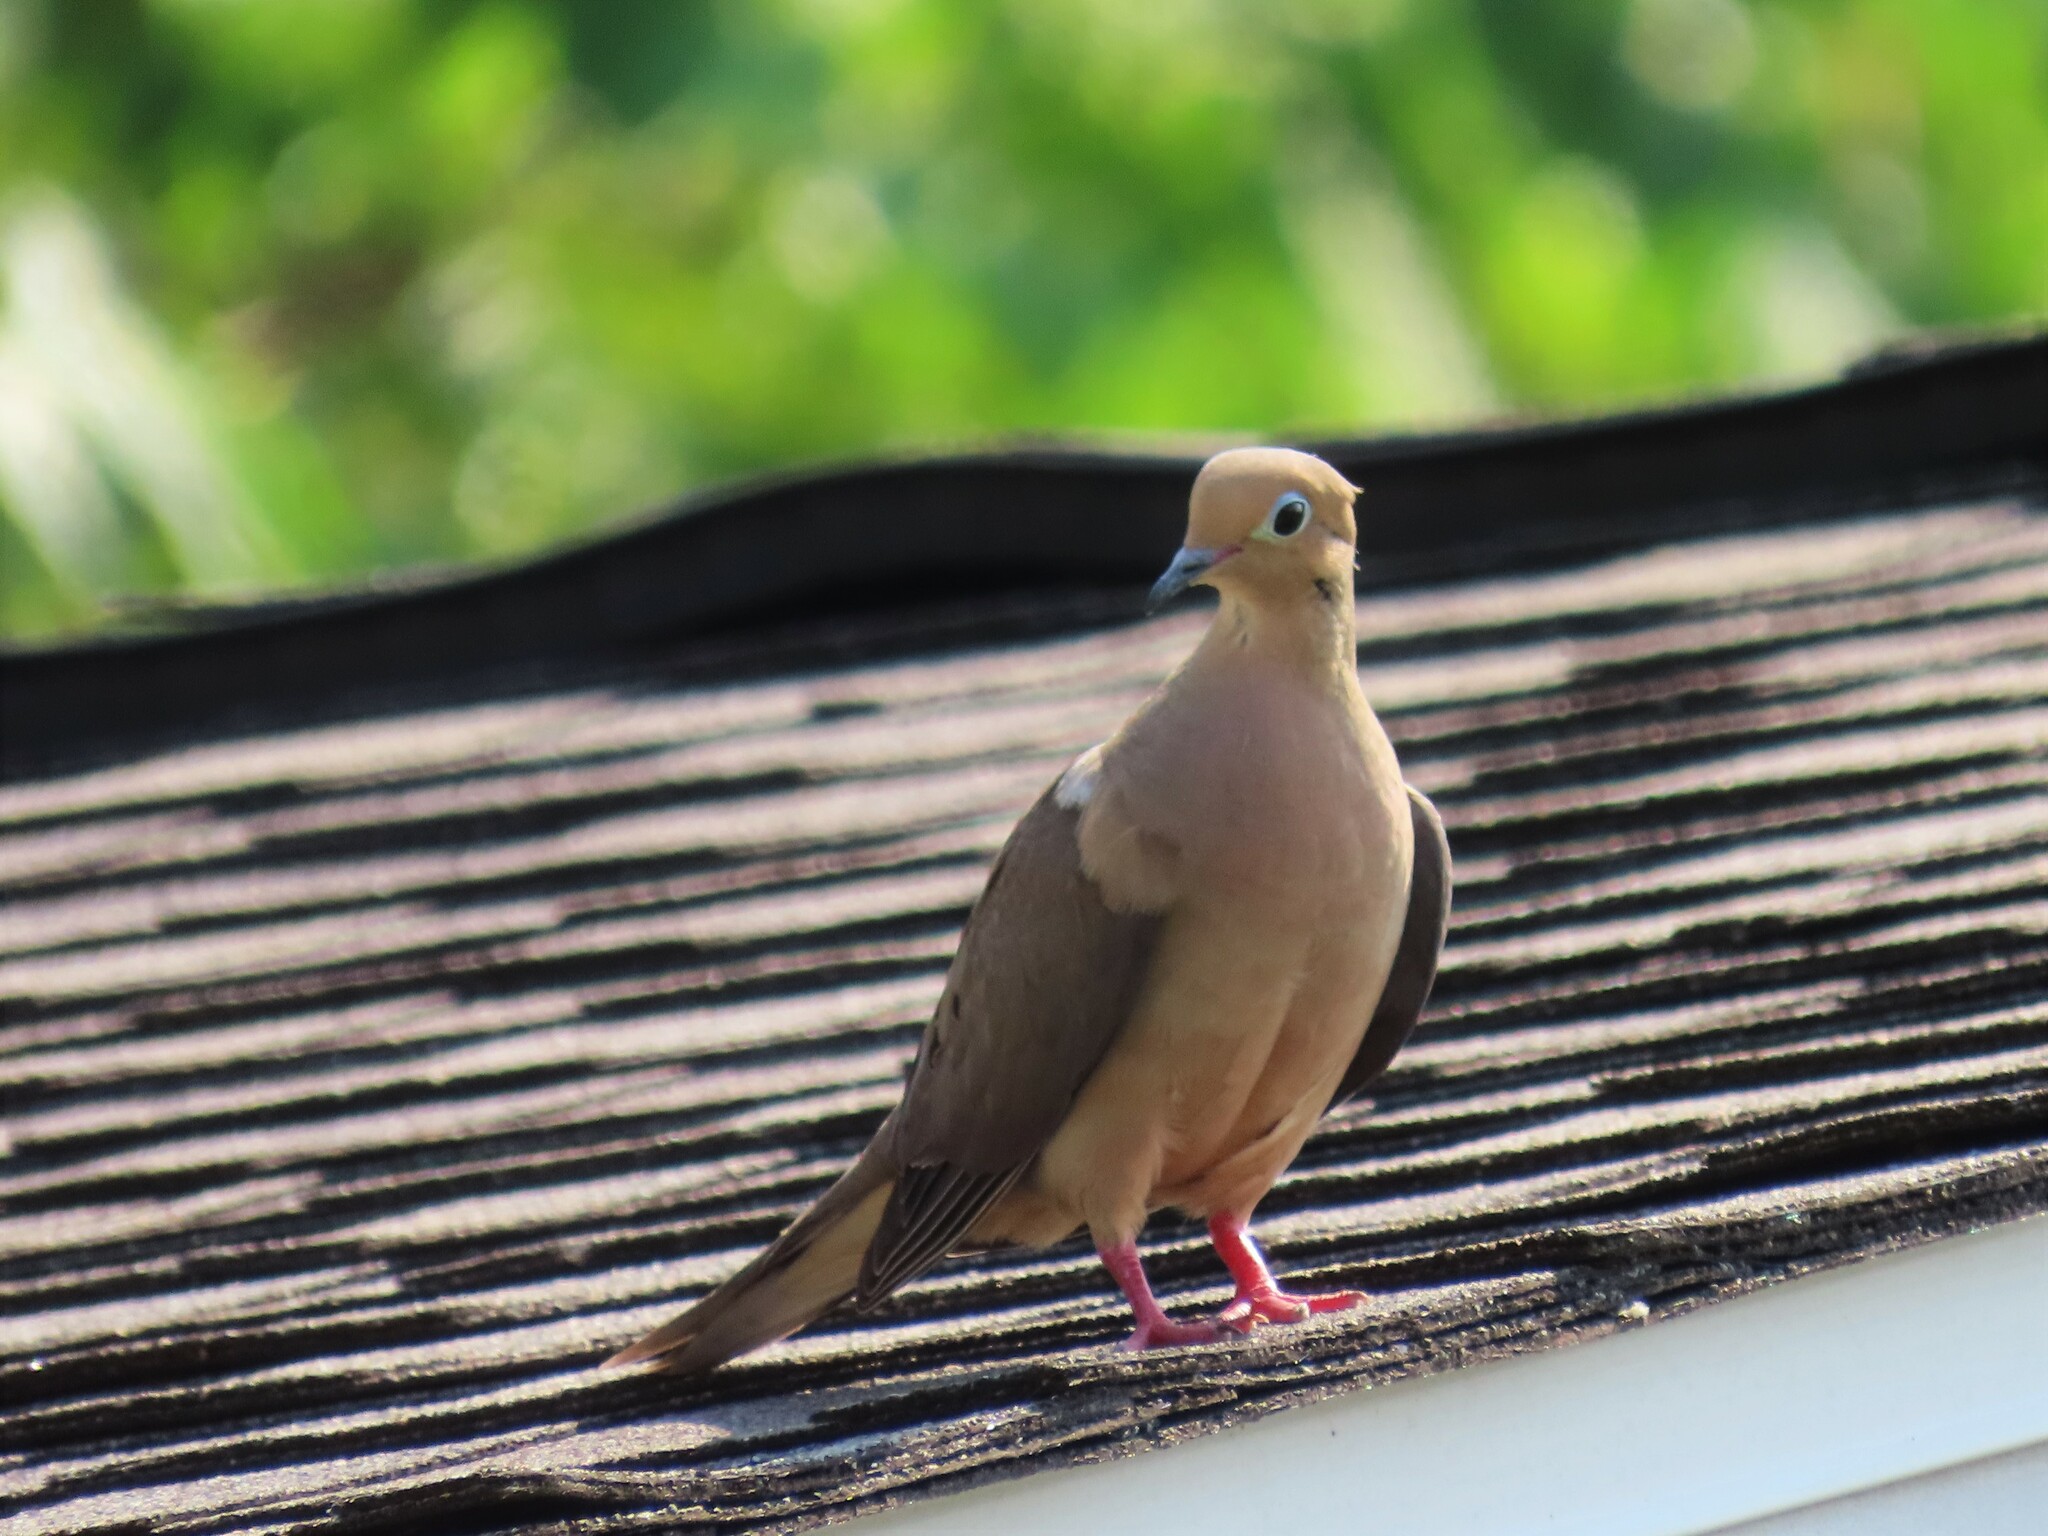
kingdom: Animalia
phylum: Chordata
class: Aves
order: Columbiformes
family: Columbidae
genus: Zenaida
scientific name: Zenaida macroura
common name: Mourning dove
